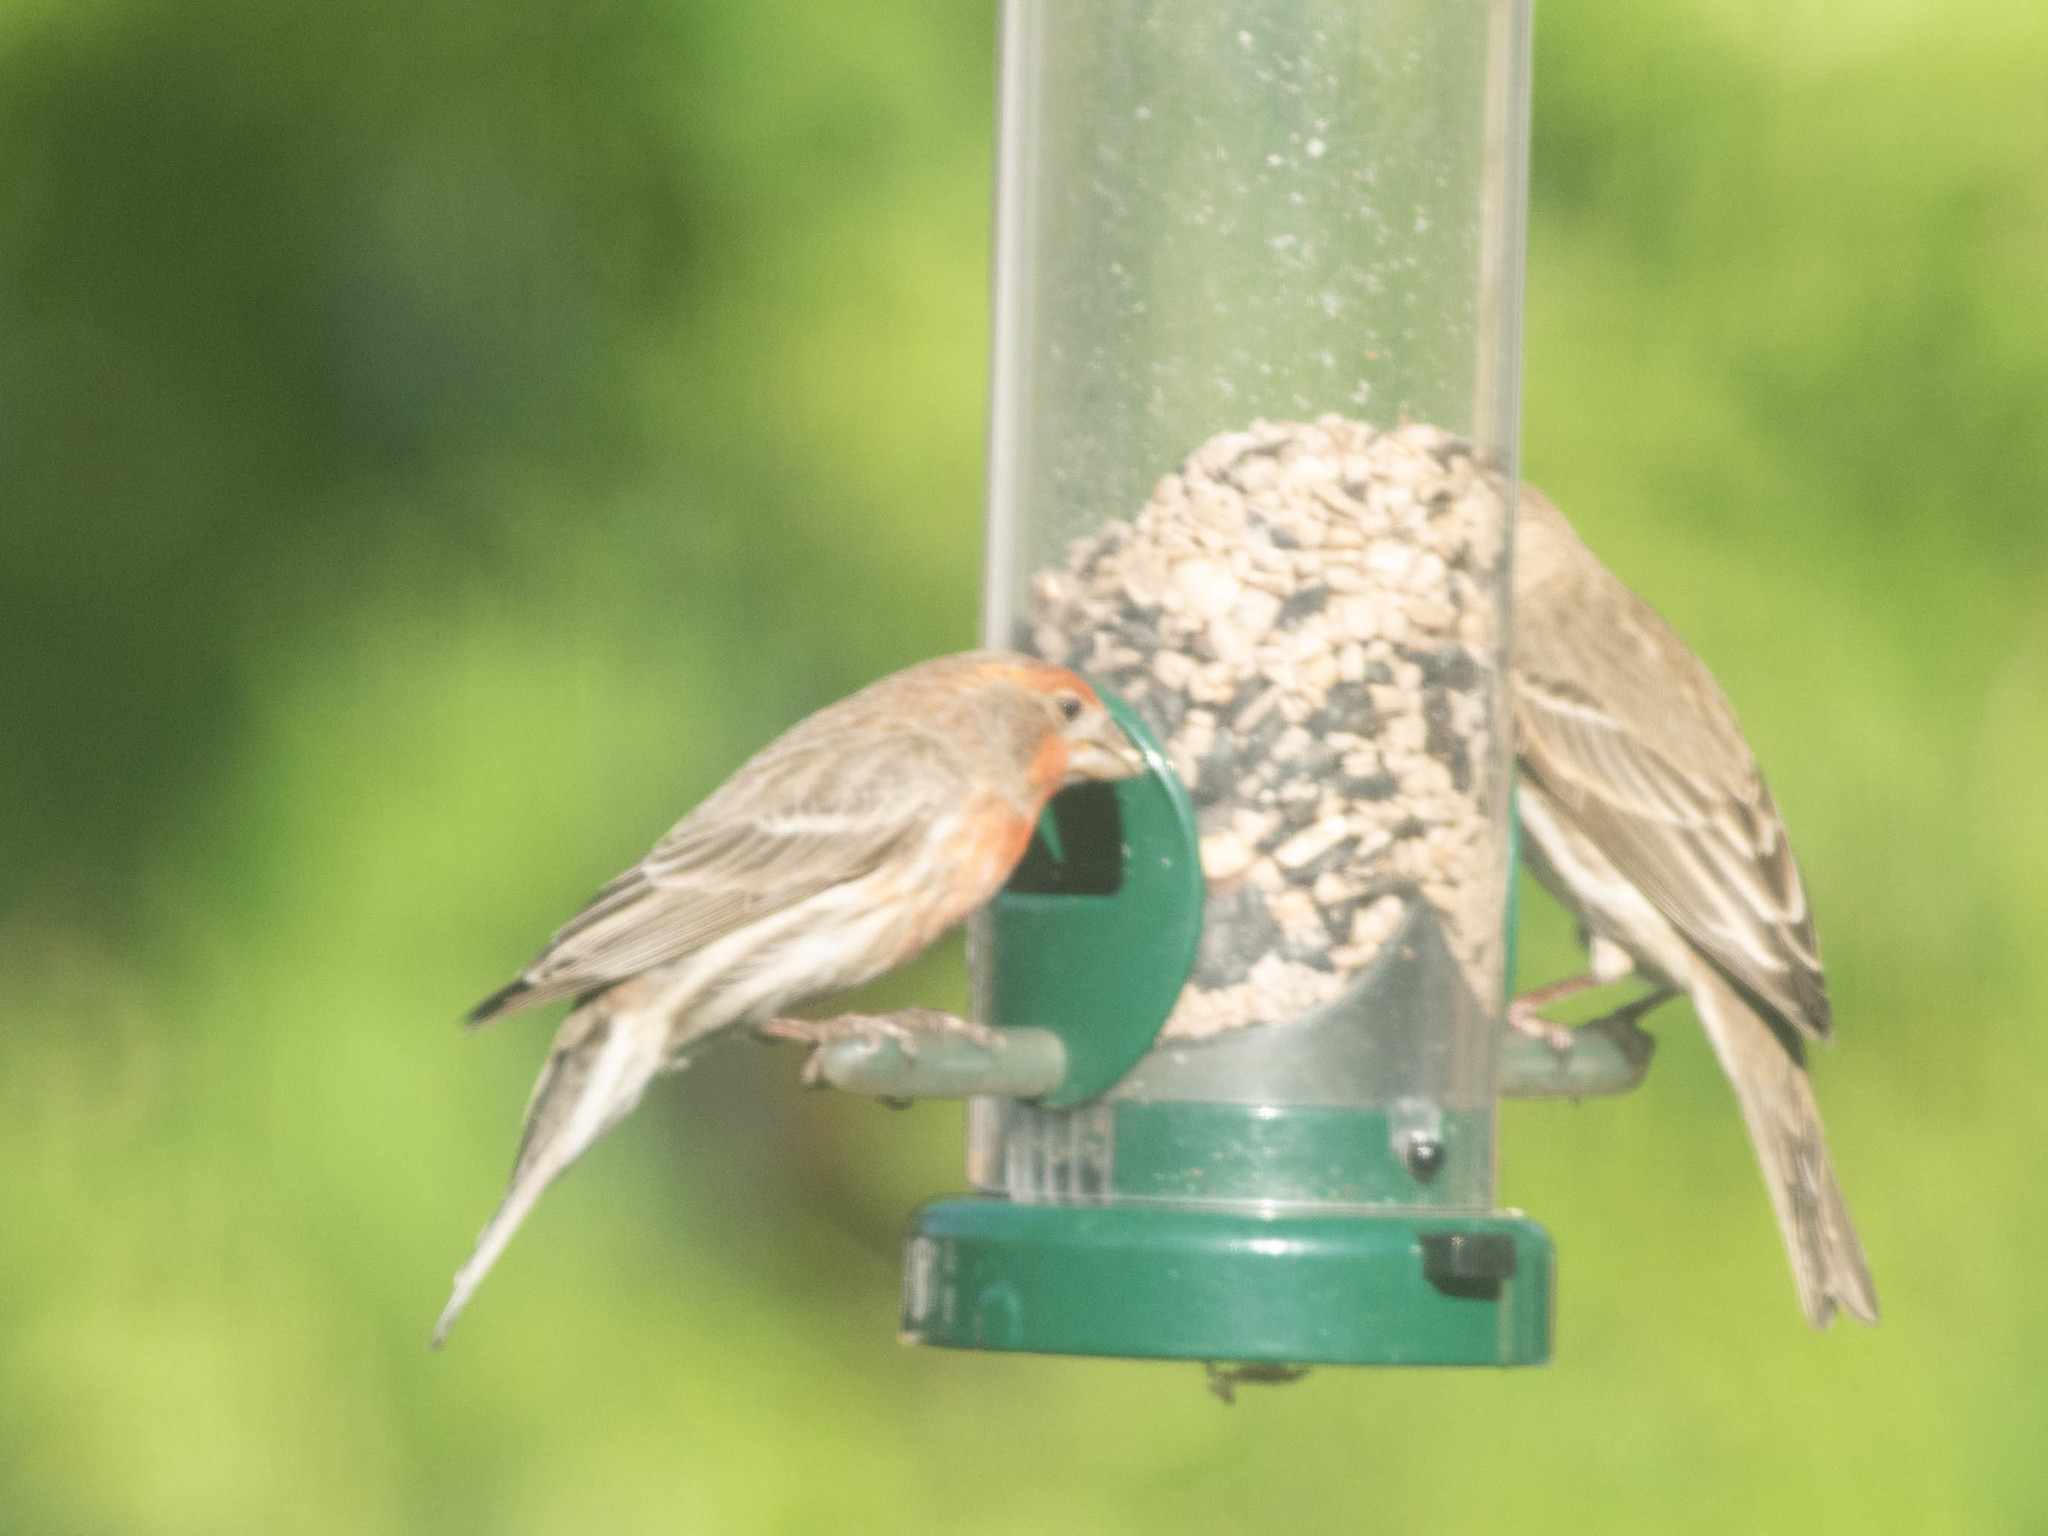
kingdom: Animalia
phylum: Chordata
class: Aves
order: Passeriformes
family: Fringillidae
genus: Haemorhous
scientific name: Haemorhous mexicanus
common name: House finch
